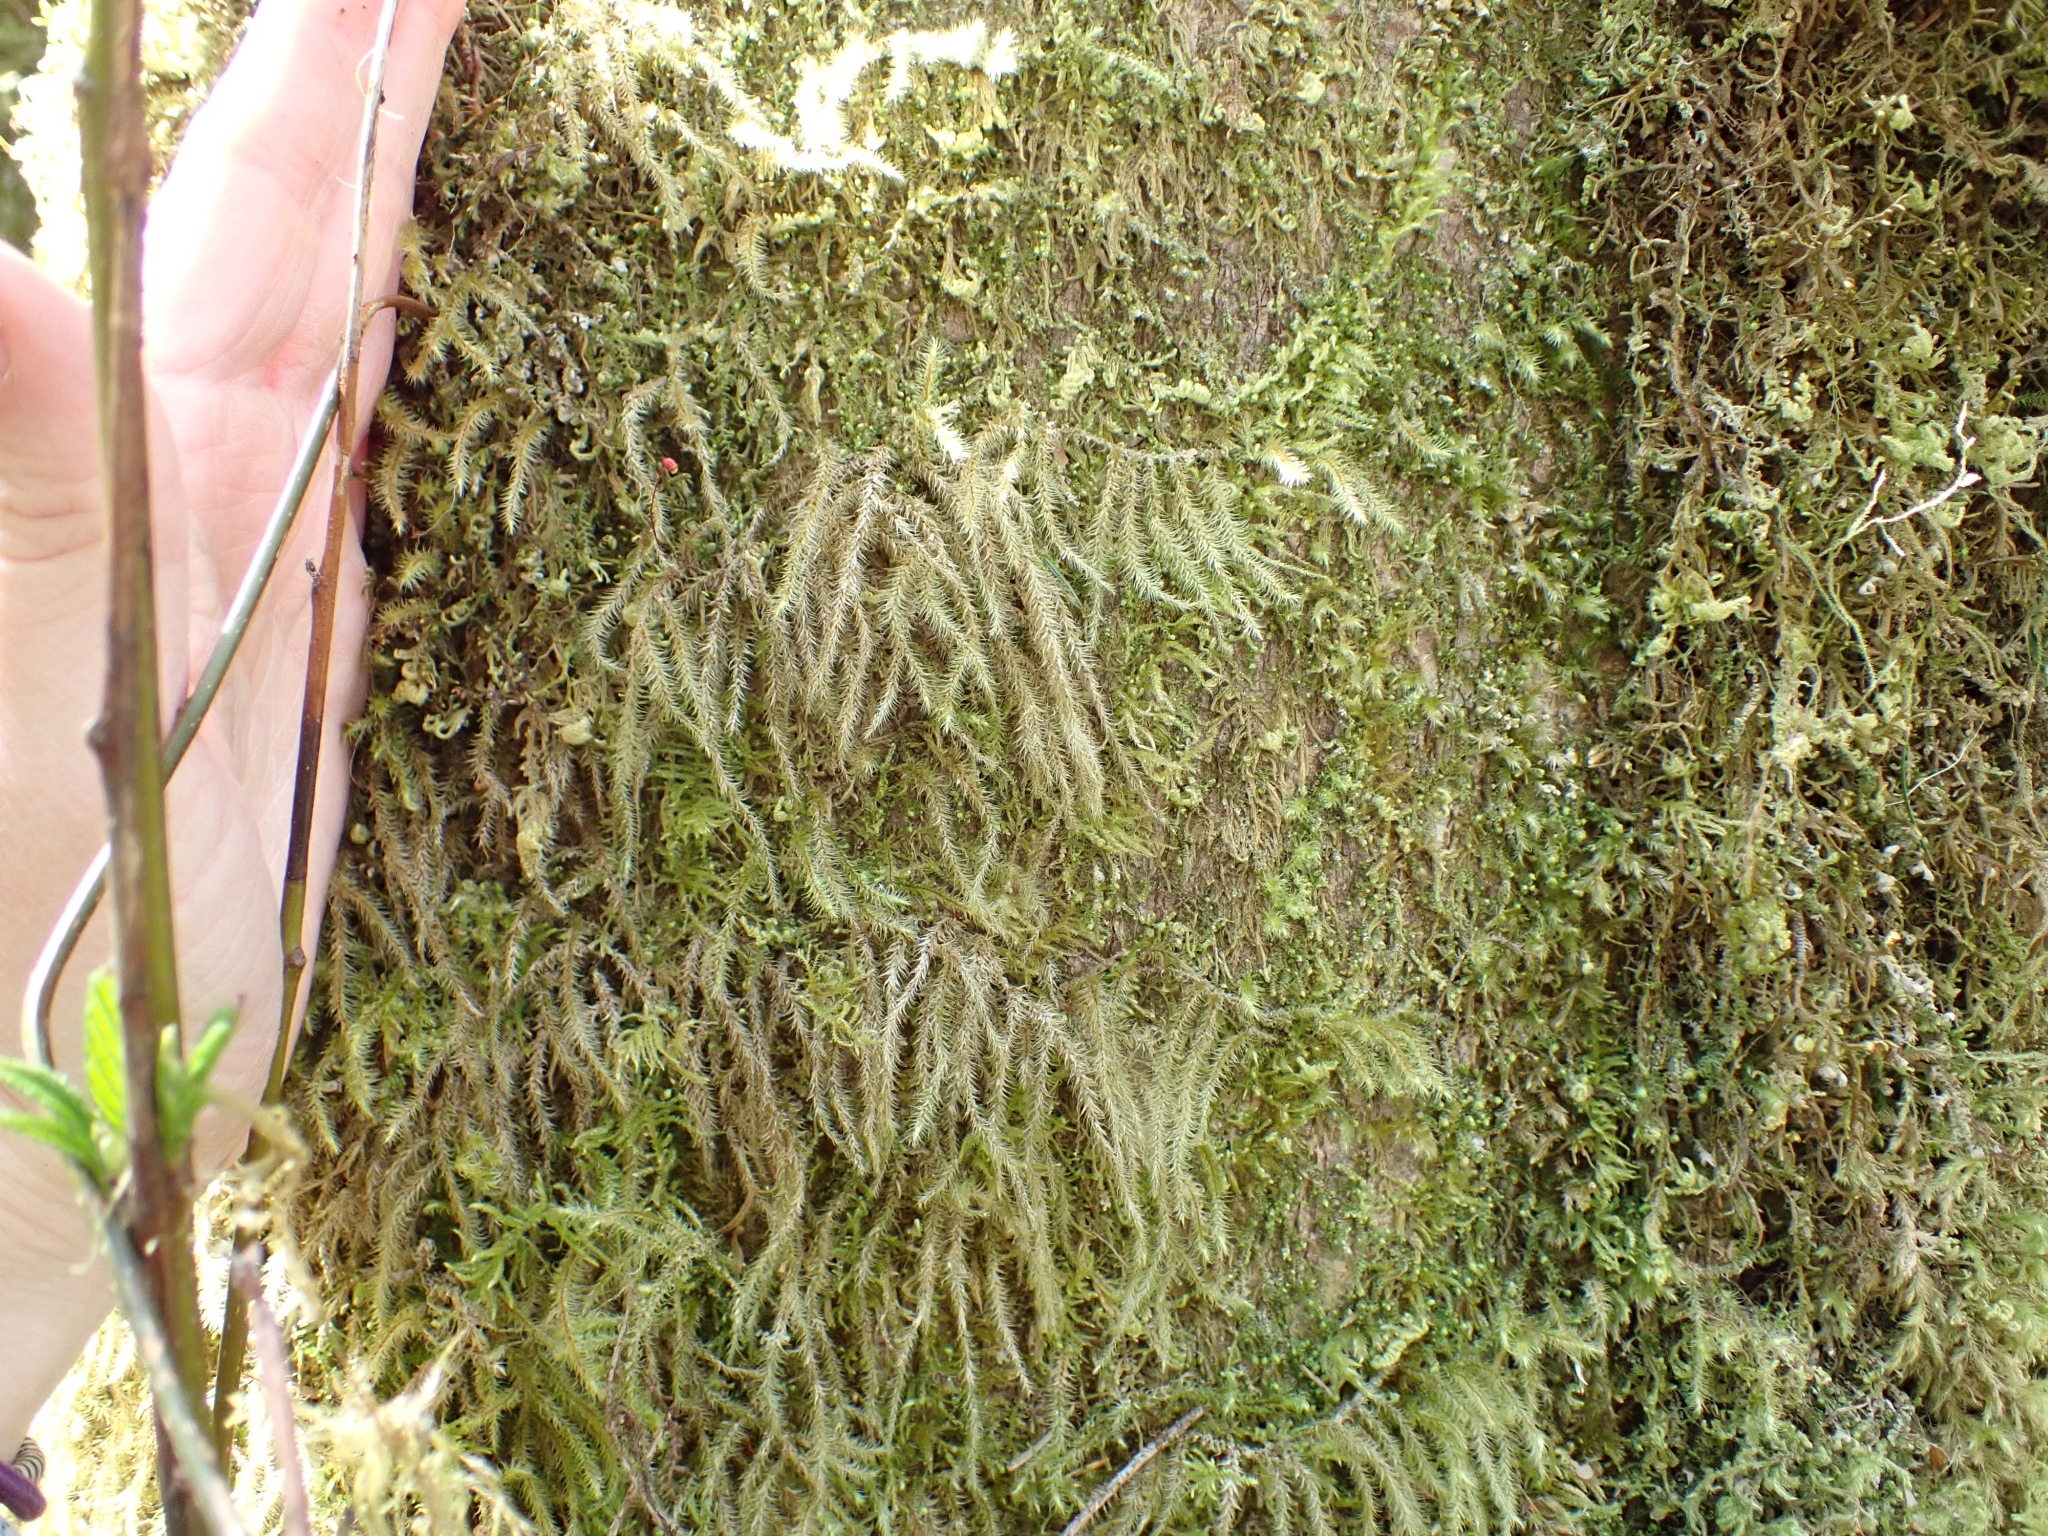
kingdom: Plantae
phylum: Bryophyta
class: Bryopsida
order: Hypnales
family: Hylocomiaceae
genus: Rhytidiadelphus
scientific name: Rhytidiadelphus loreus
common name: Lanky moss
